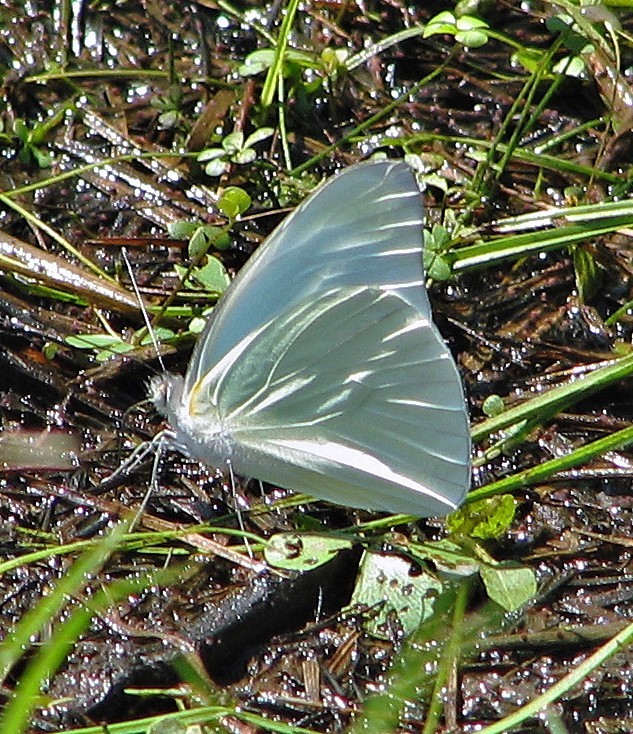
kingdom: Animalia
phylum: Arthropoda
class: Insecta
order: Lepidoptera
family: Pieridae
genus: Glutophrissa
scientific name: Glutophrissa drusilla
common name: Florida white
